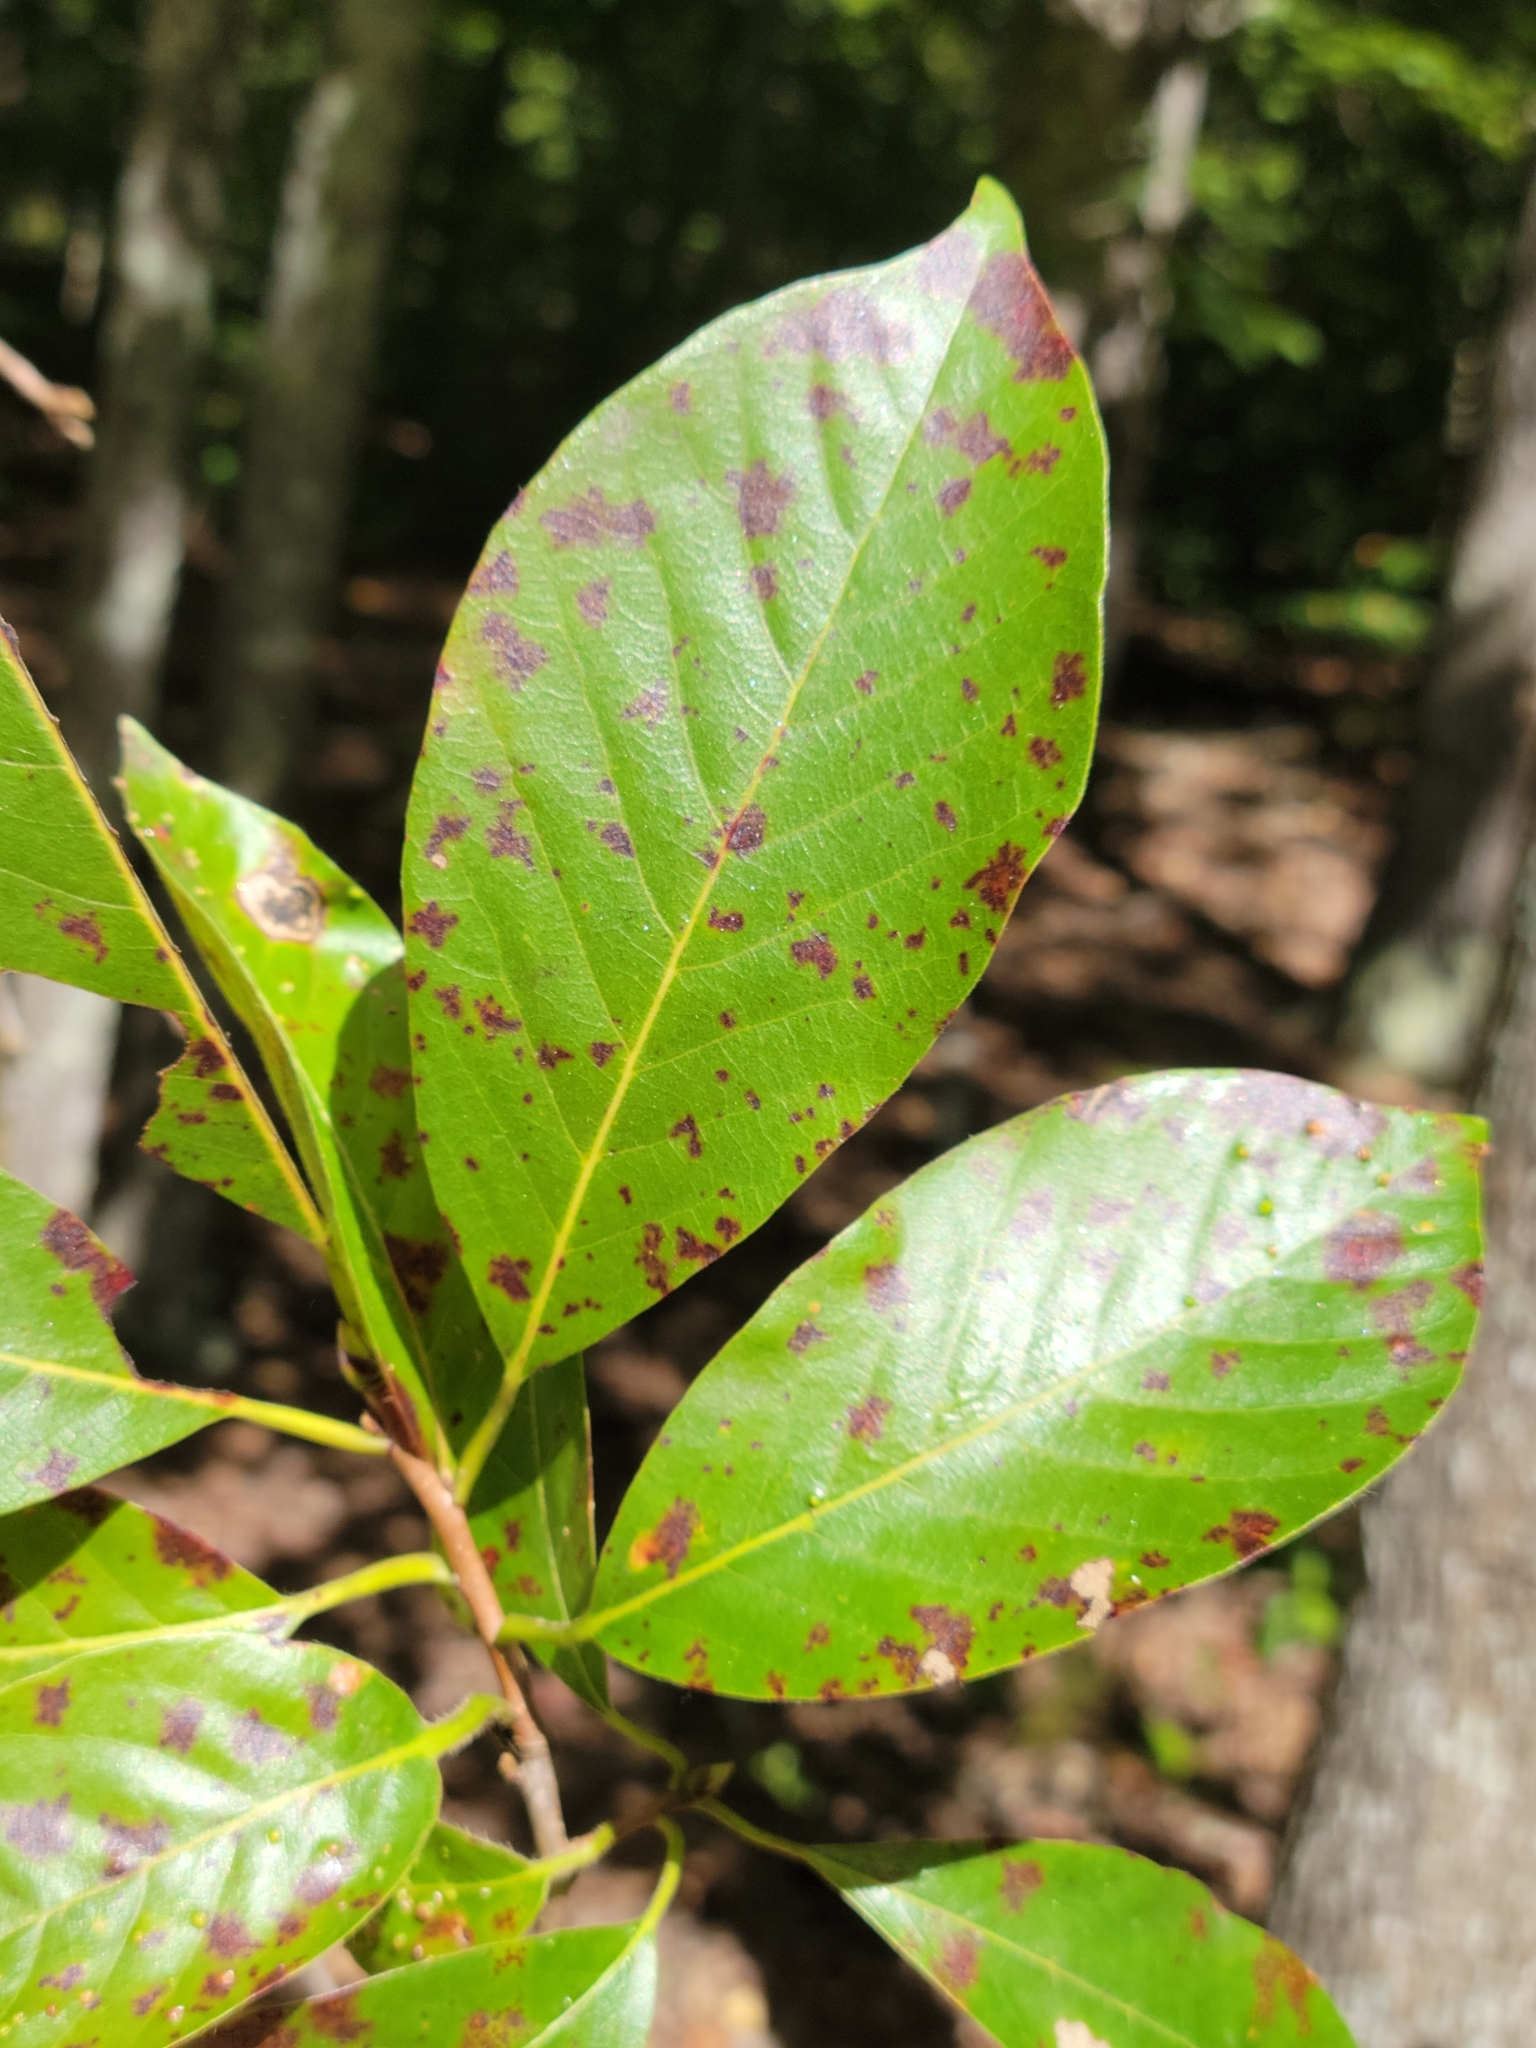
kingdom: Plantae
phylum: Tracheophyta
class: Magnoliopsida
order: Cornales
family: Nyssaceae
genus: Nyssa
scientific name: Nyssa sylvatica
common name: Black tupelo
